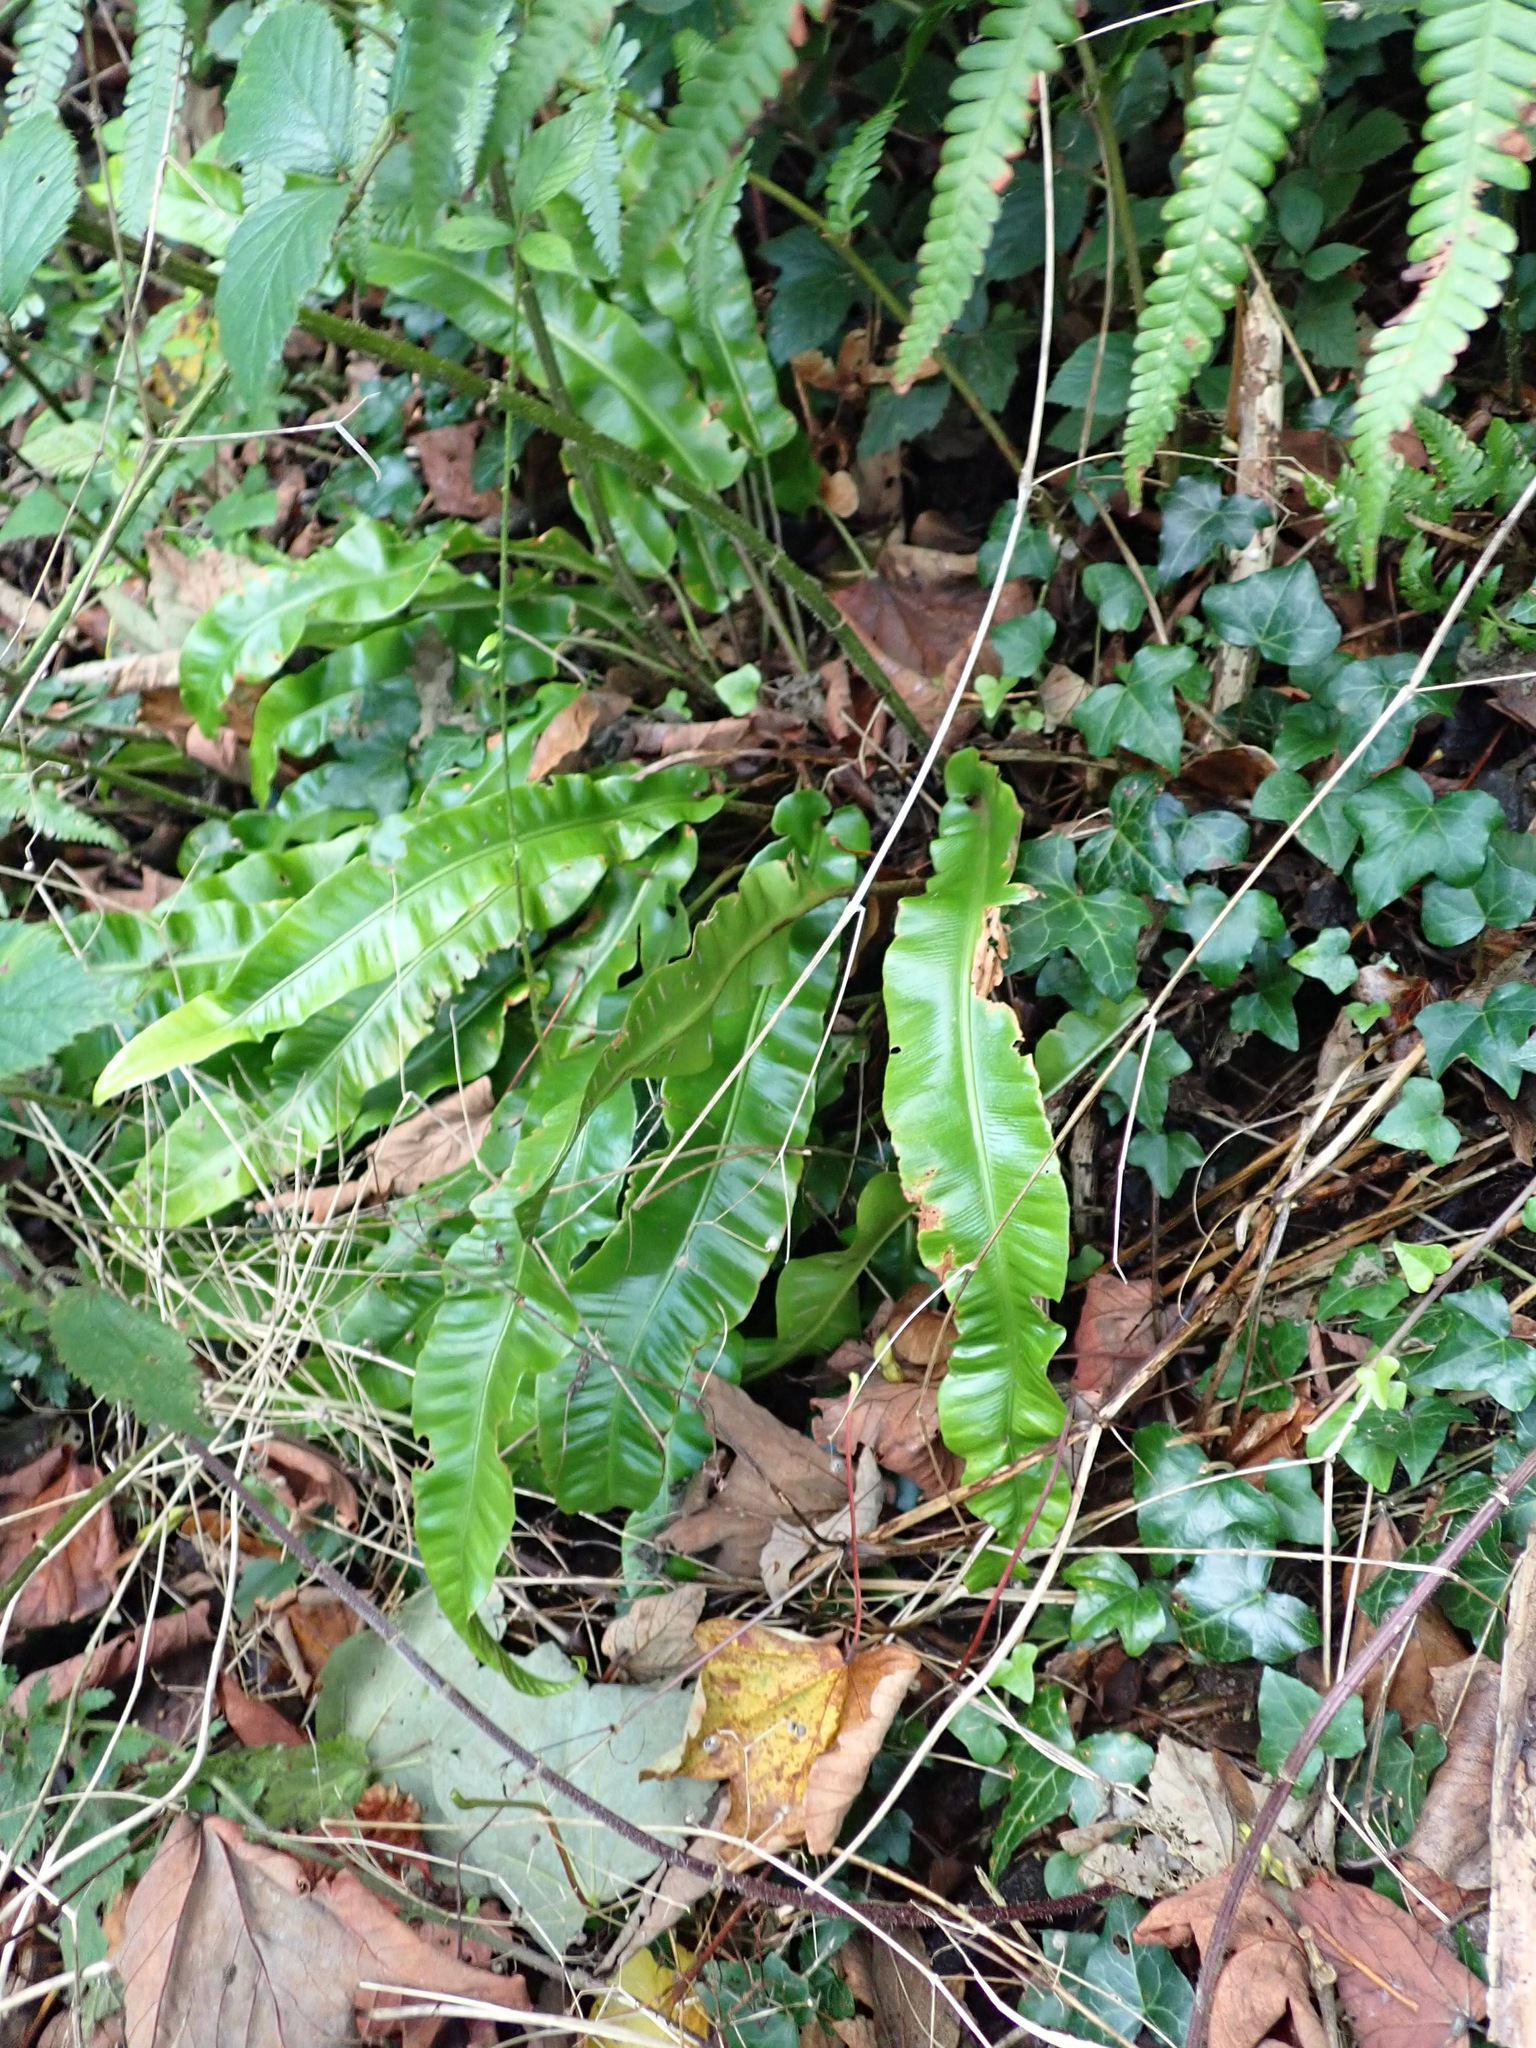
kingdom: Plantae
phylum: Tracheophyta
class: Polypodiopsida
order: Polypodiales
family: Aspleniaceae
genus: Asplenium
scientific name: Asplenium scolopendrium
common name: Hart's-tongue fern
